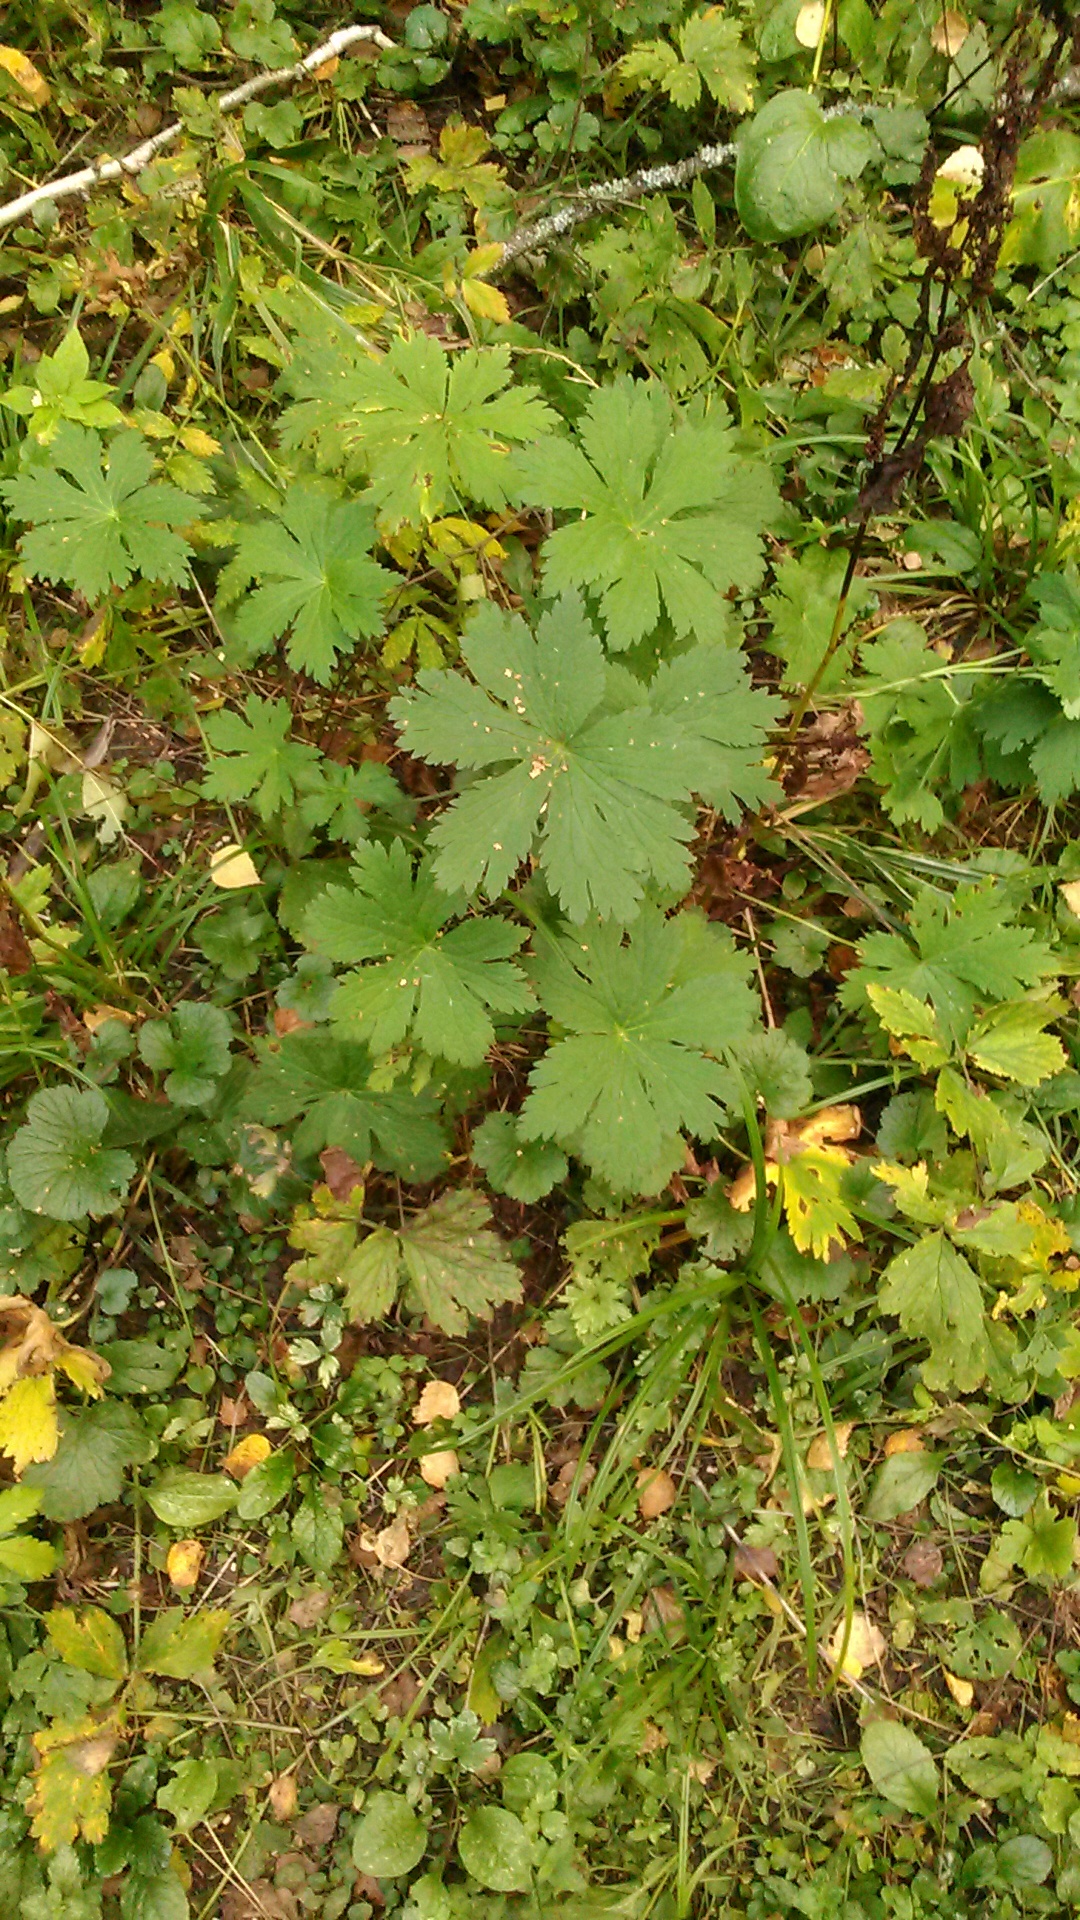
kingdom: Plantae
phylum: Tracheophyta
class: Magnoliopsida
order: Geraniales
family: Geraniaceae
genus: Geranium
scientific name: Geranium sylvaticum
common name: Wood crane's-bill
